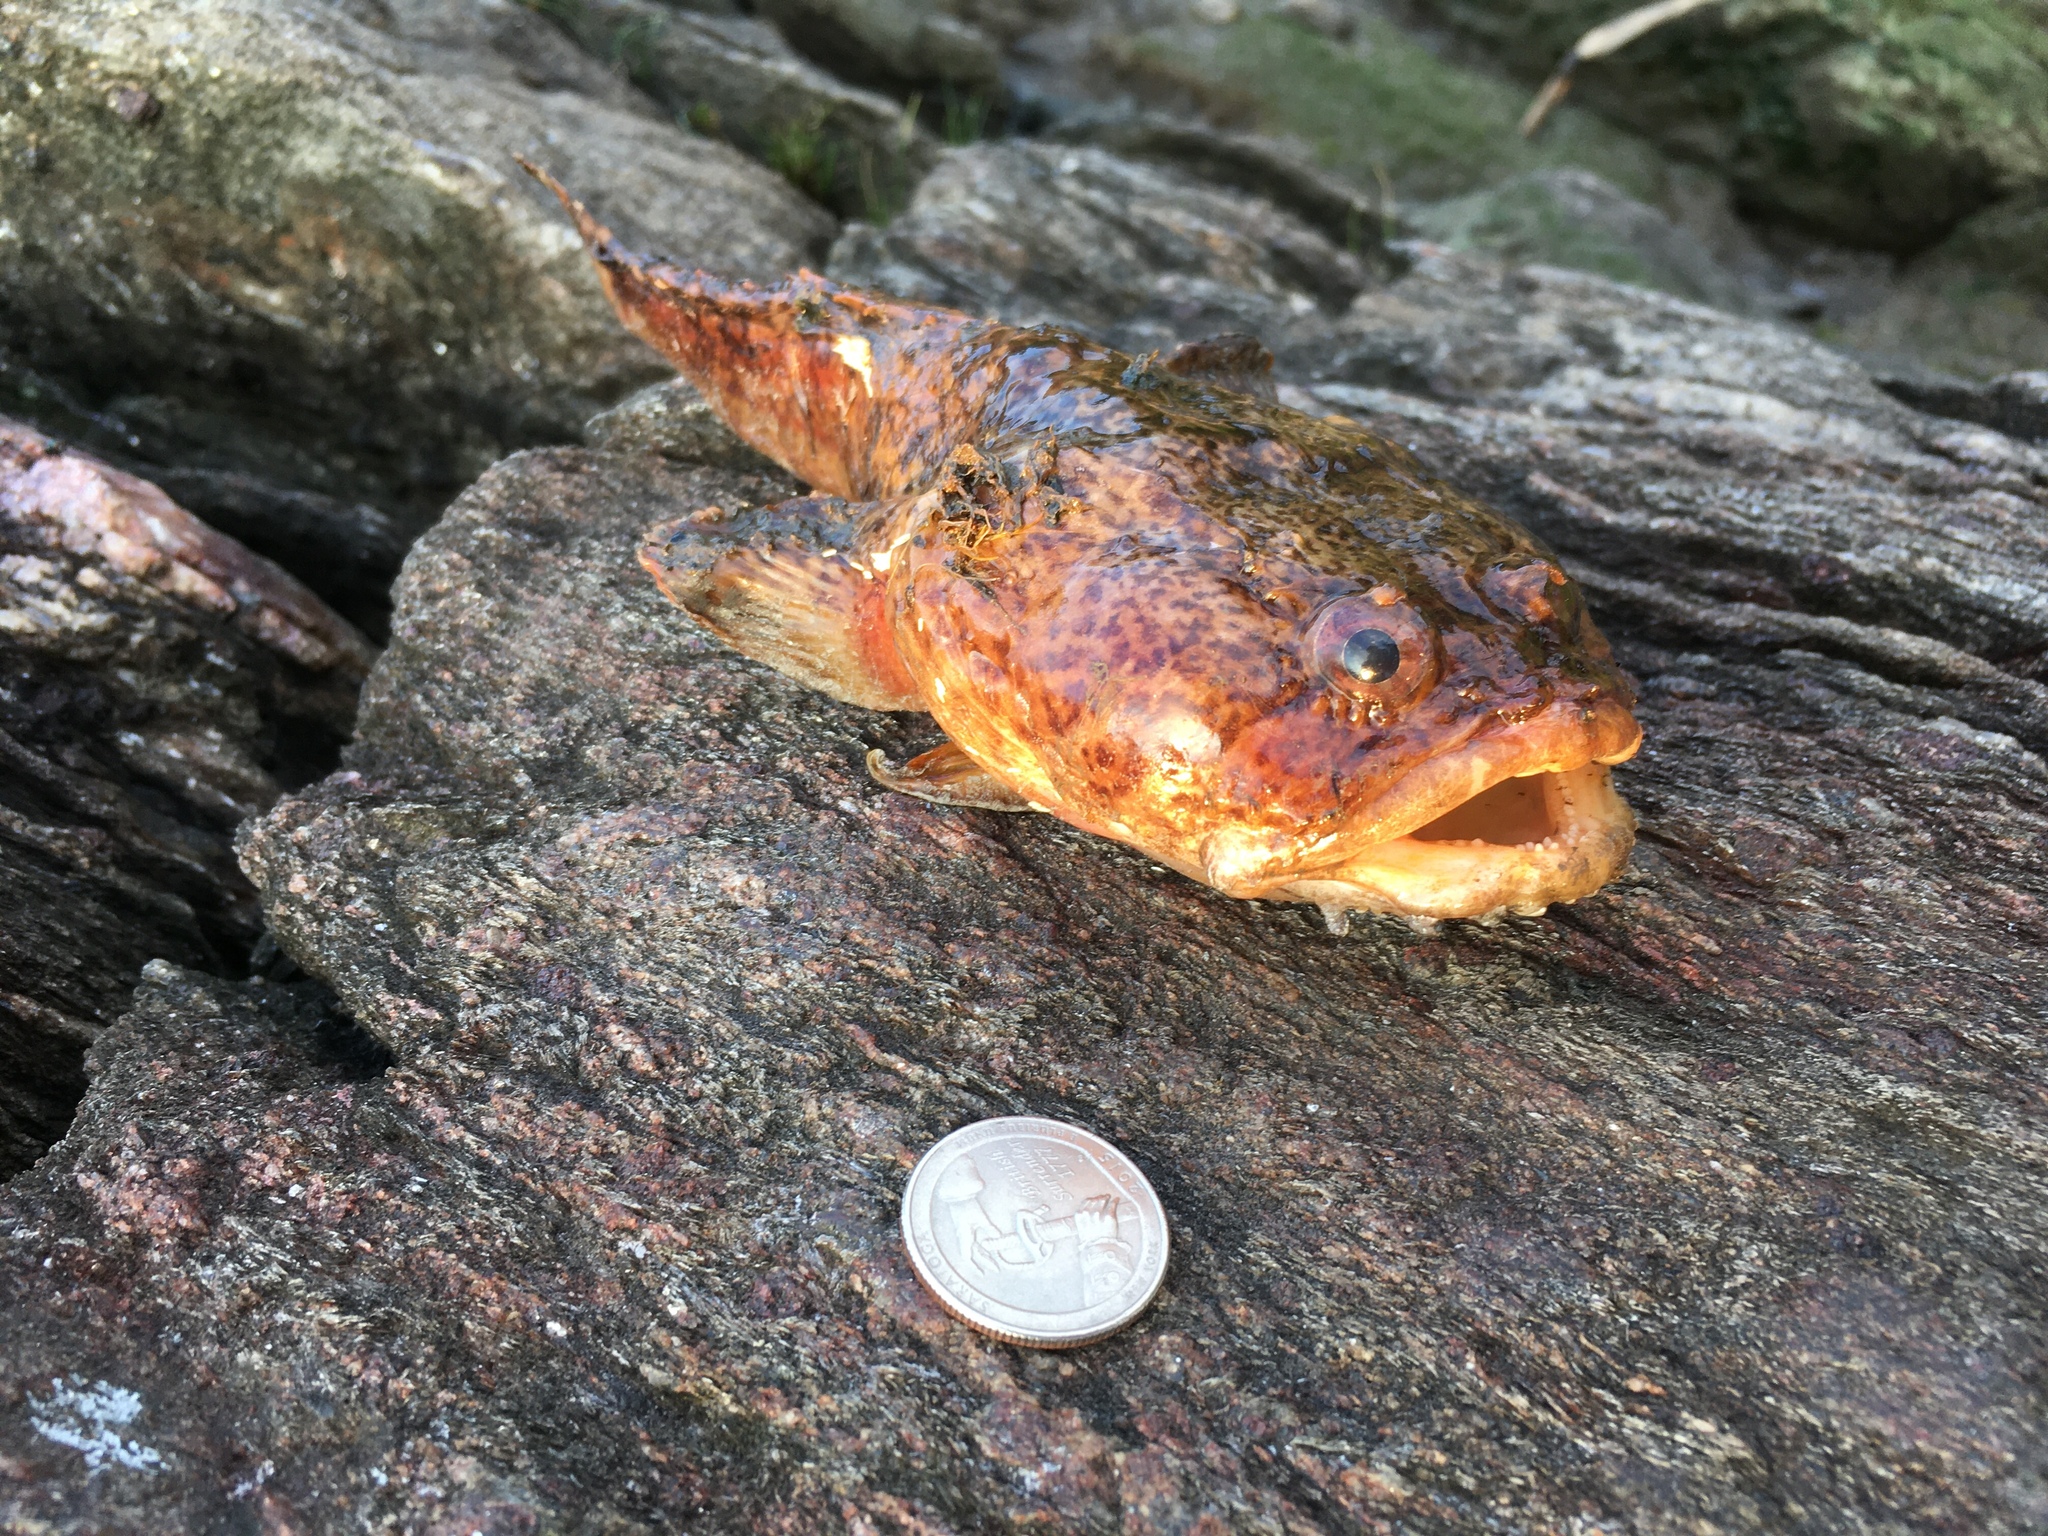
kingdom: Animalia
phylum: Chordata
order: Batrachoidiformes
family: Batrachoididae
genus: Opsanus
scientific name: Opsanus tau
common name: Oyster toadfish
